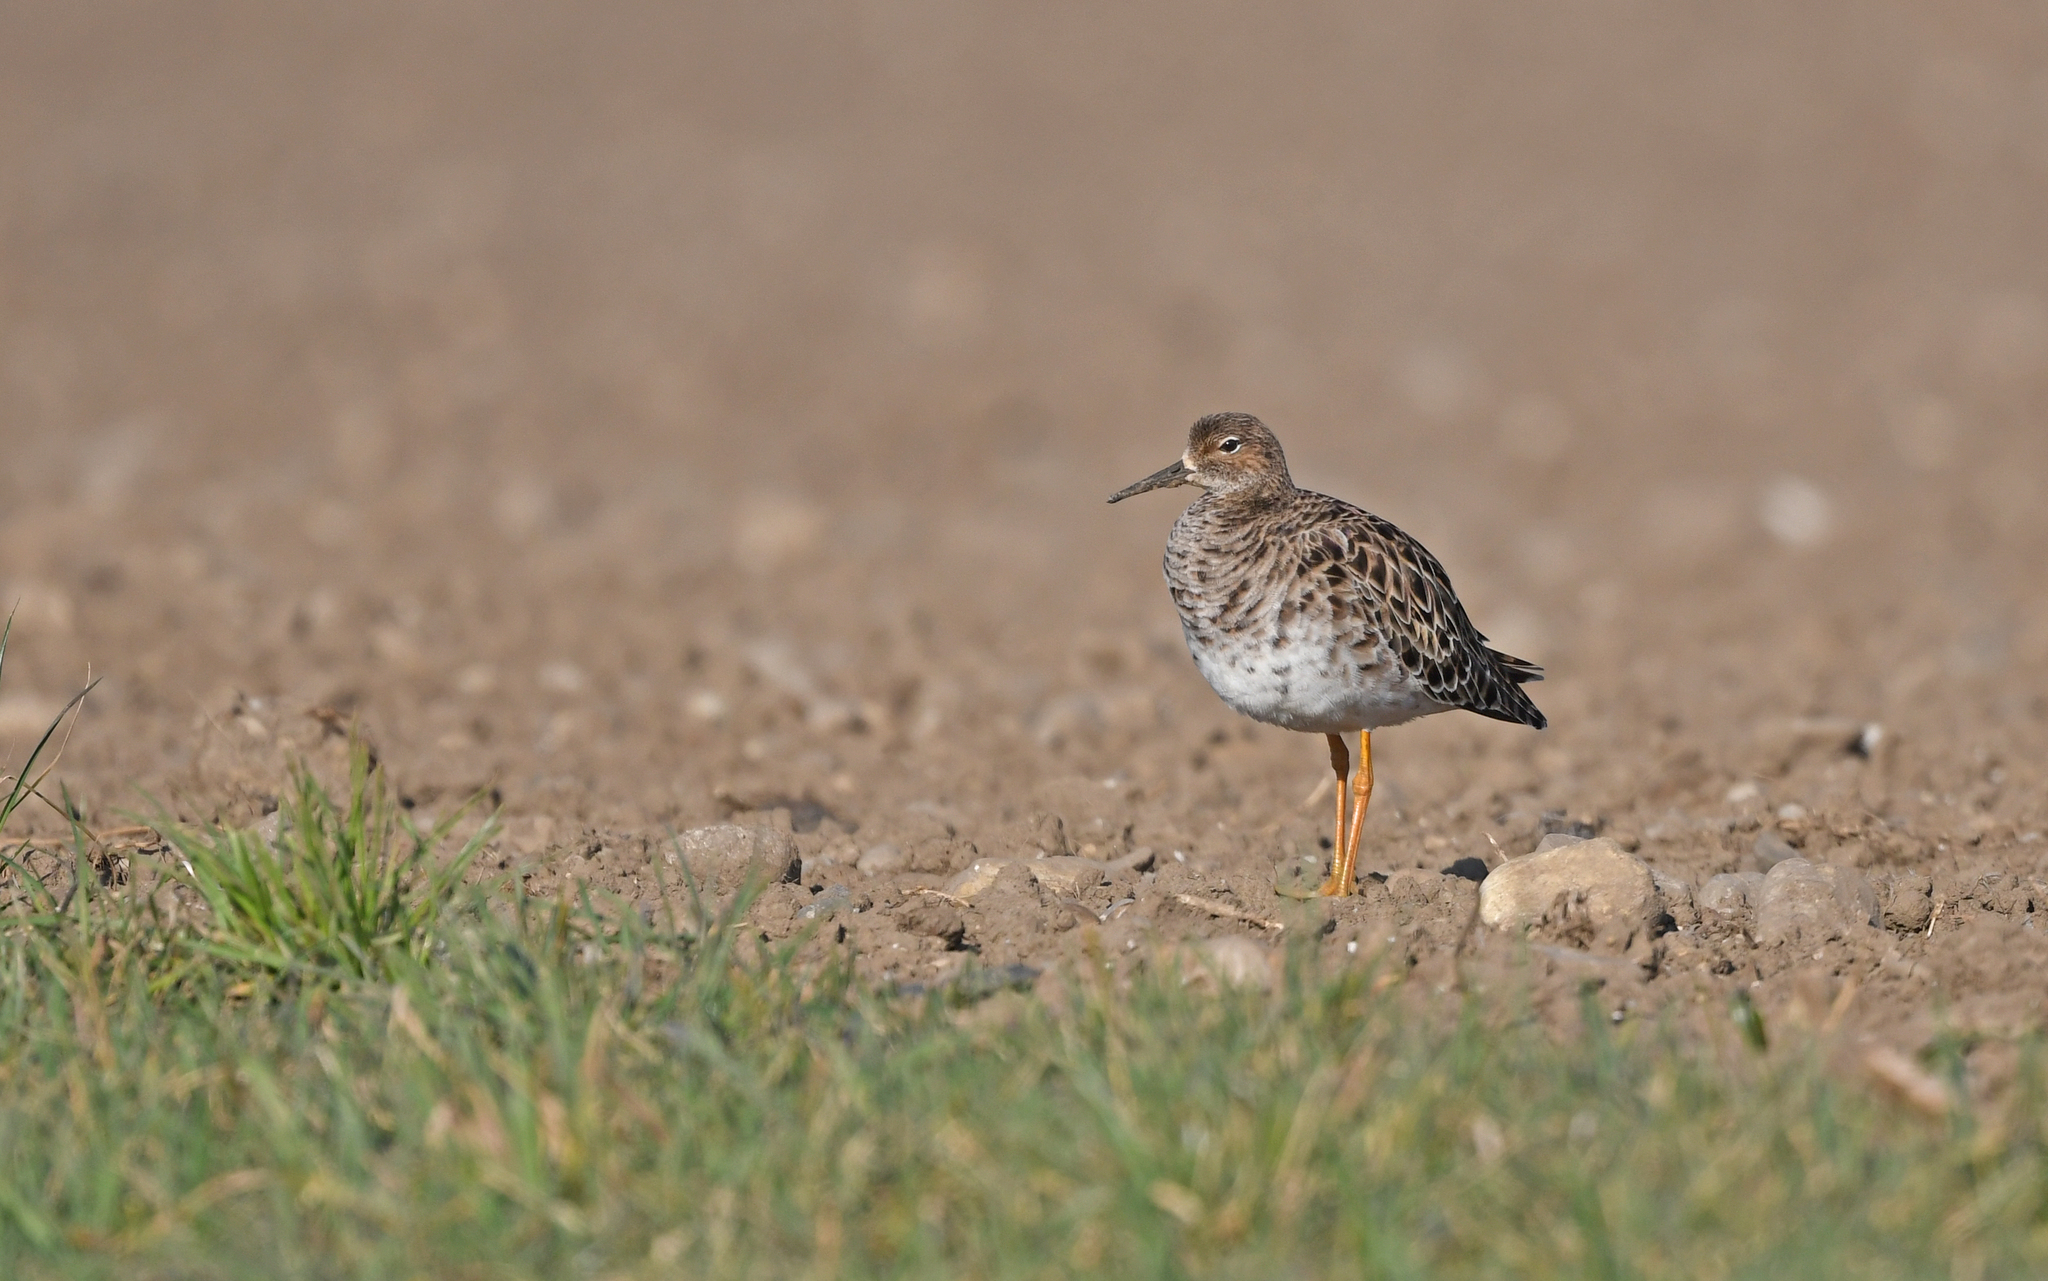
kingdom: Animalia
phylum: Chordata
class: Aves
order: Charadriiformes
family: Scolopacidae
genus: Calidris
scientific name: Calidris pugnax
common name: Ruff
